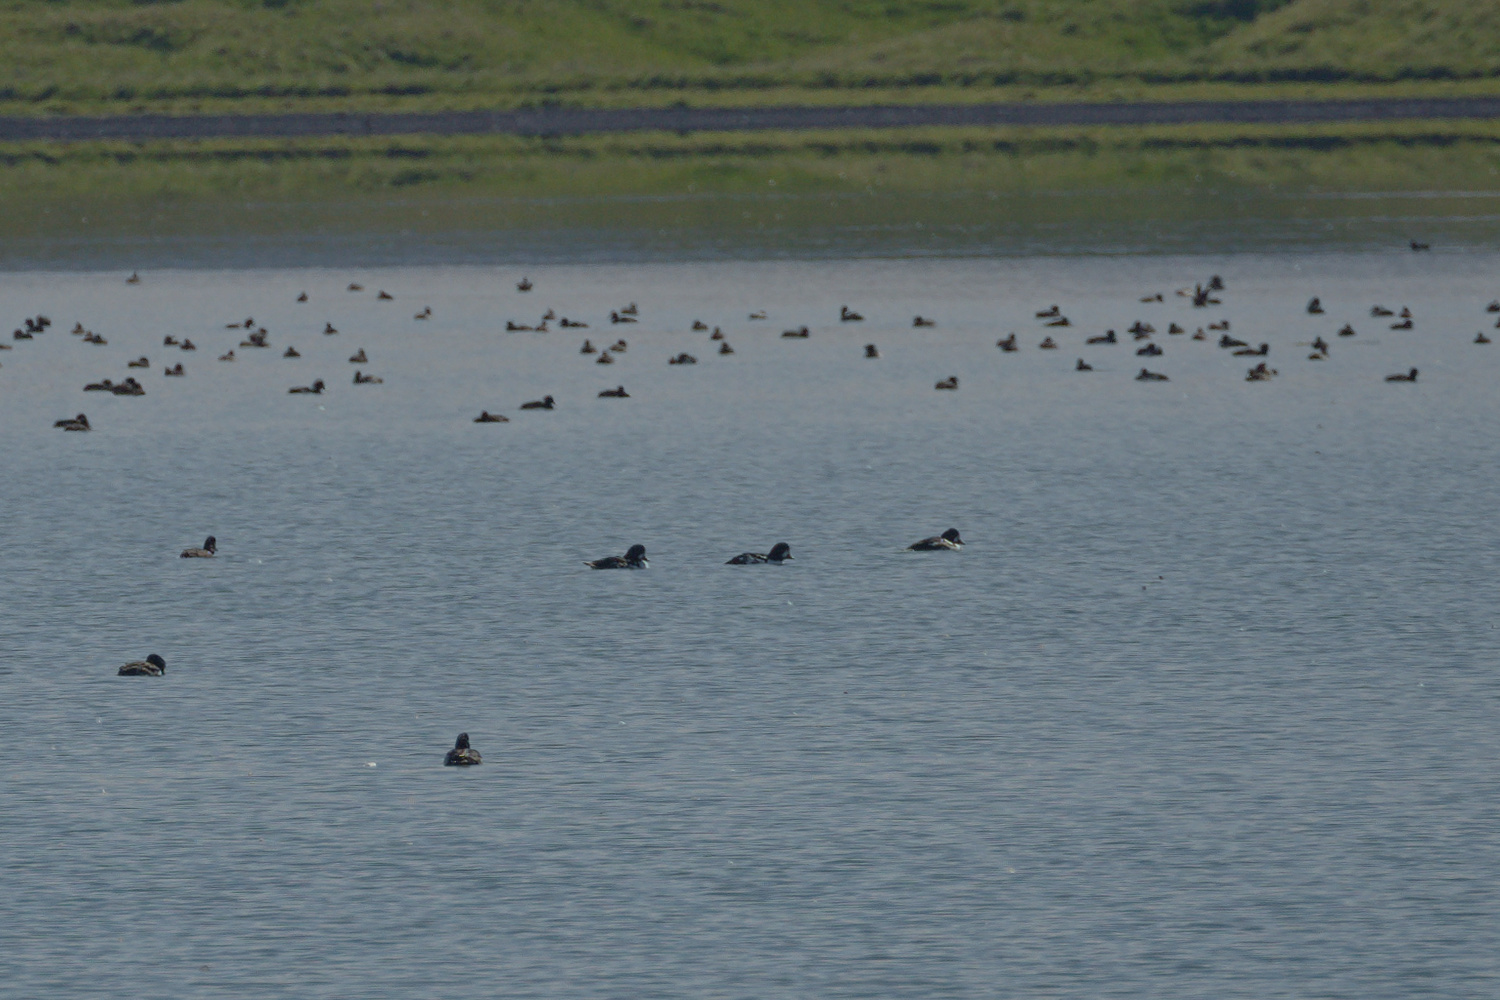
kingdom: Animalia
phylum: Chordata
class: Aves
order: Anseriformes
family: Anatidae
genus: Bucephala
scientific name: Bucephala islandica
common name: Barrow's goldeneye
